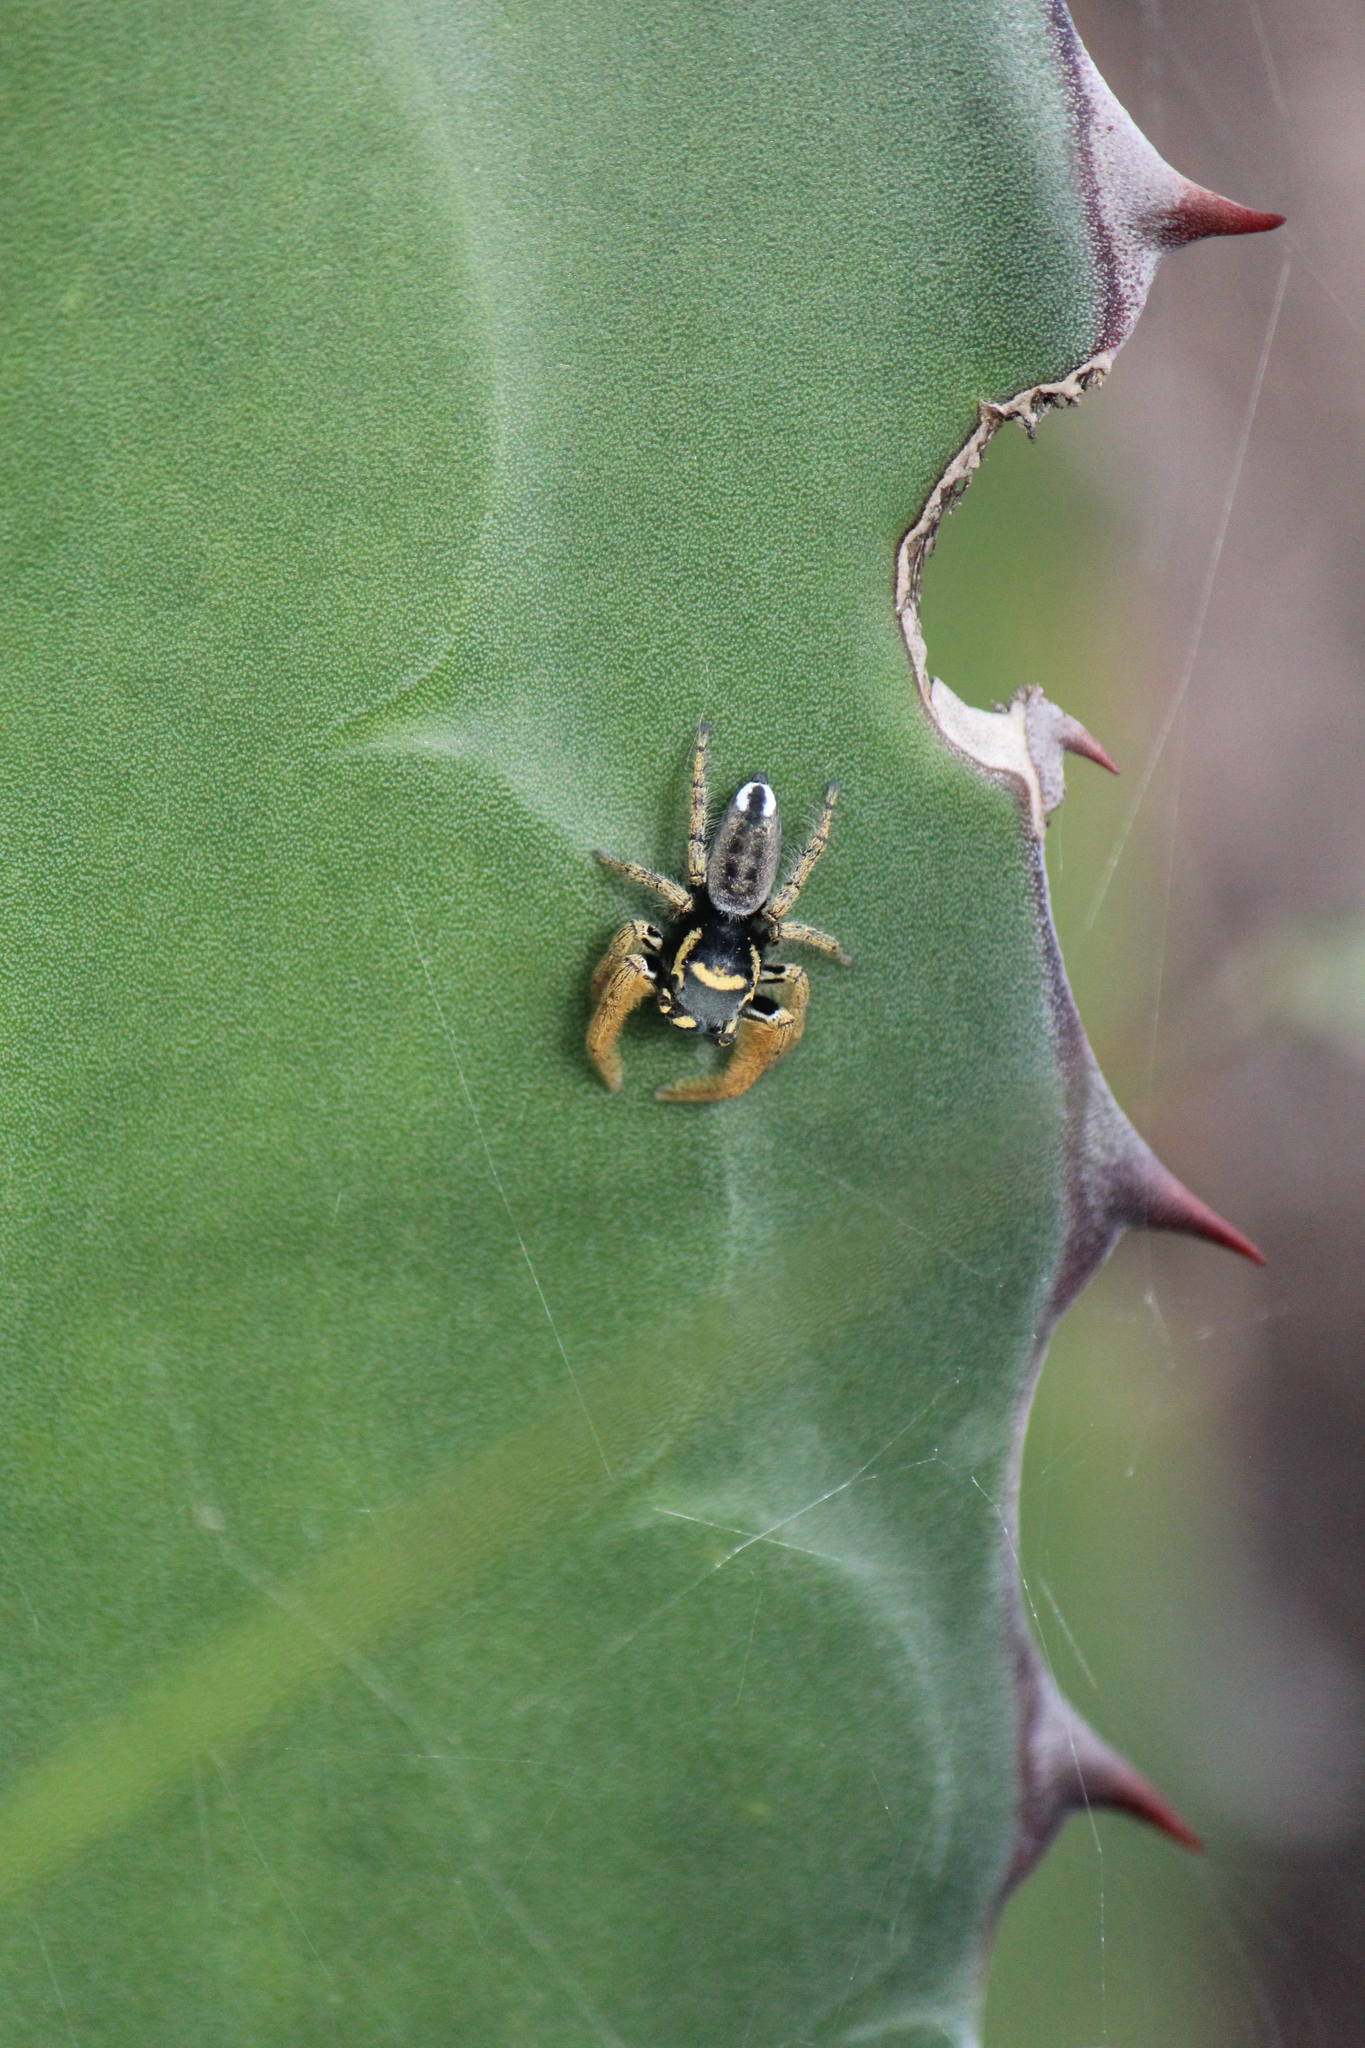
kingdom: Animalia
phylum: Arthropoda
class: Arachnida
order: Araneae
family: Salticidae
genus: Phidippus
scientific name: Phidippus arizonensis
